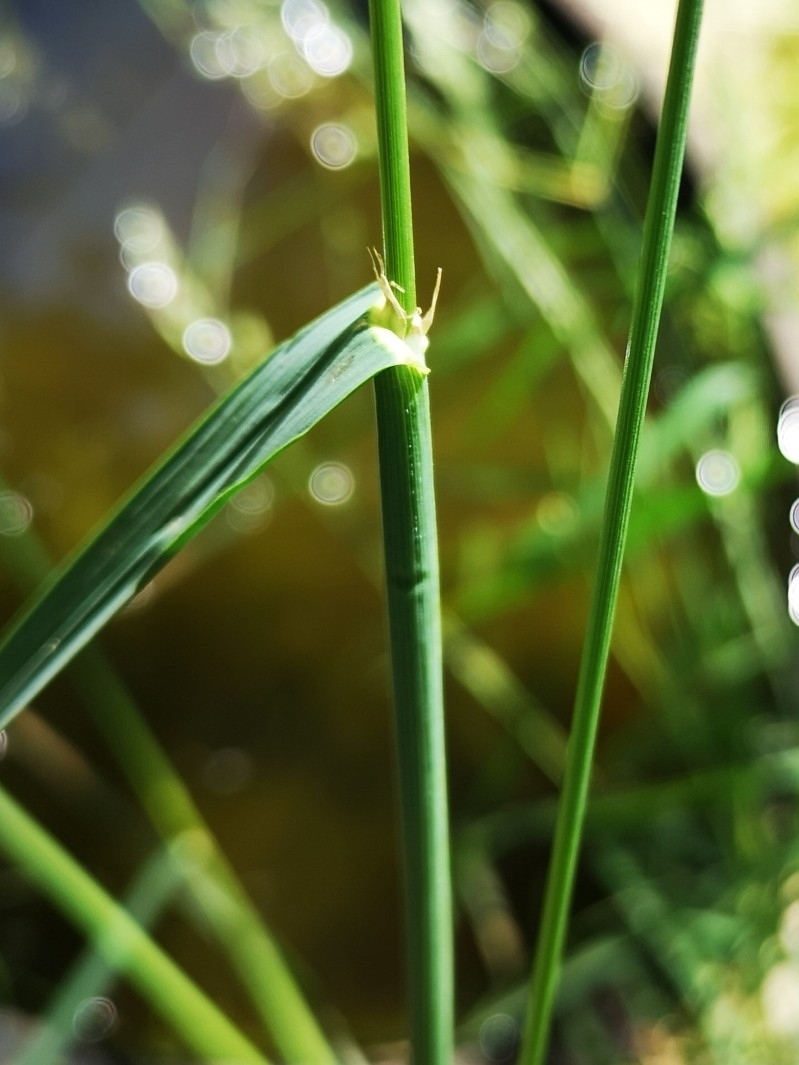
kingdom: Plantae
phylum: Tracheophyta
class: Liliopsida
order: Poales
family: Poaceae
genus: Dactylis
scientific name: Dactylis glomerata
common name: Orchardgrass
